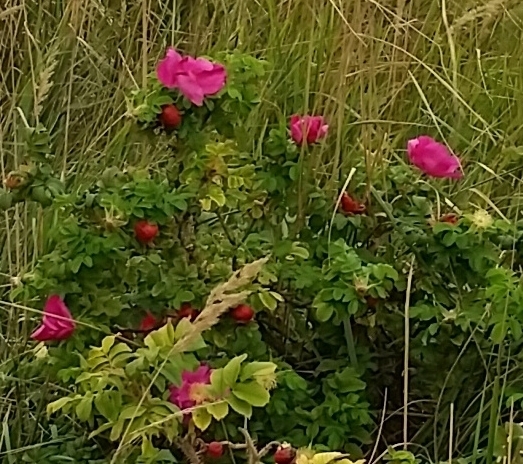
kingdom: Plantae
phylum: Tracheophyta
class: Magnoliopsida
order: Rosales
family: Rosaceae
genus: Rosa
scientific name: Rosa rugosa
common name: Japanese rose
